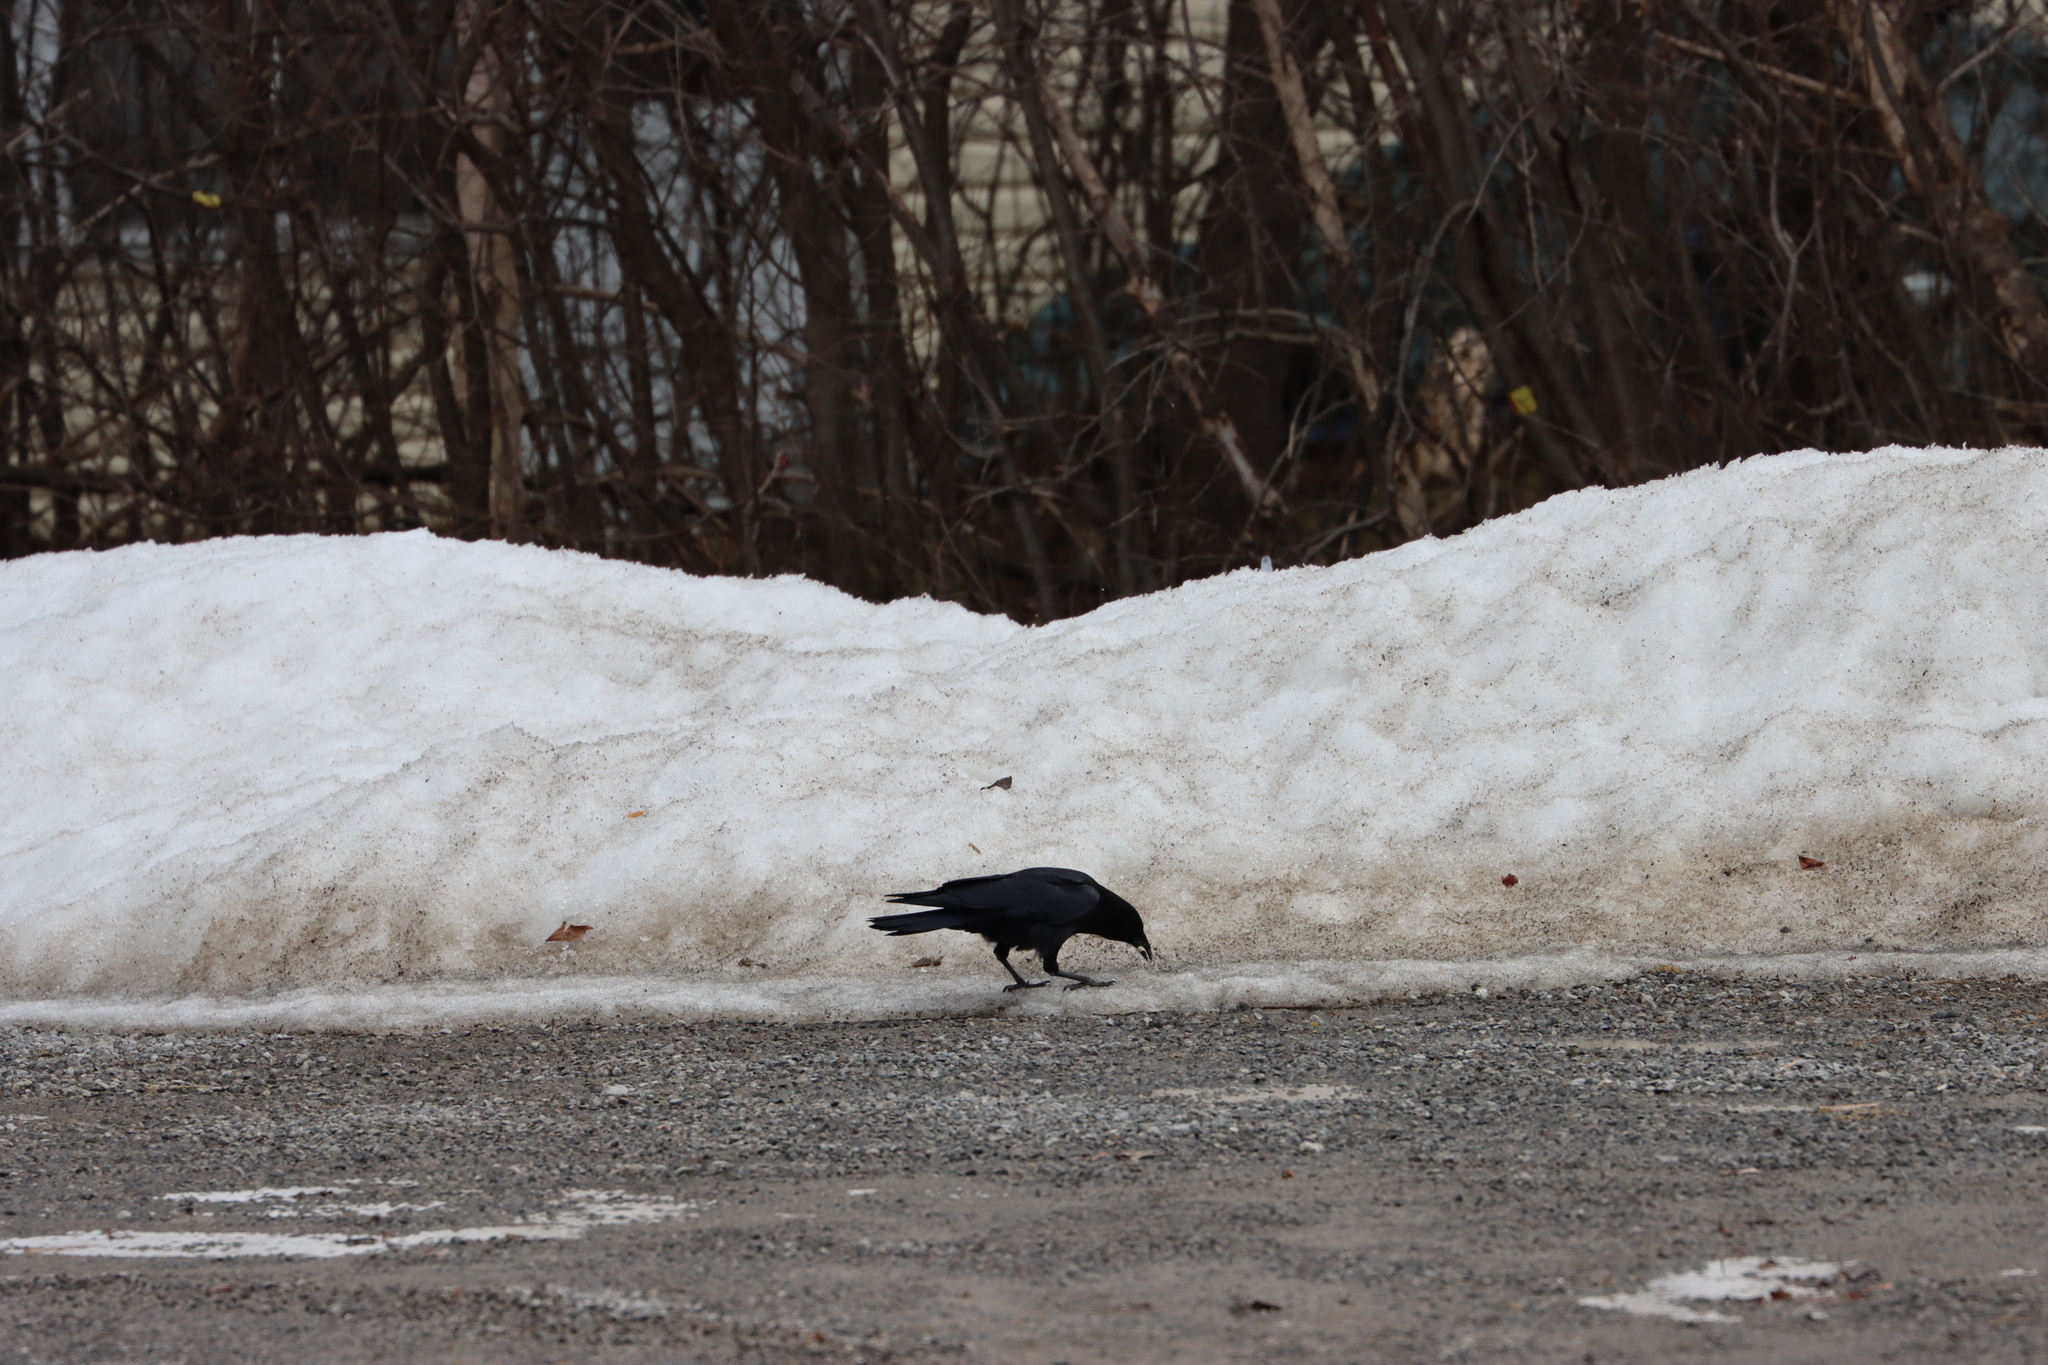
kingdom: Animalia
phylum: Chordata
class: Aves
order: Passeriformes
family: Corvidae
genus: Corvus
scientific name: Corvus brachyrhynchos
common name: American crow
